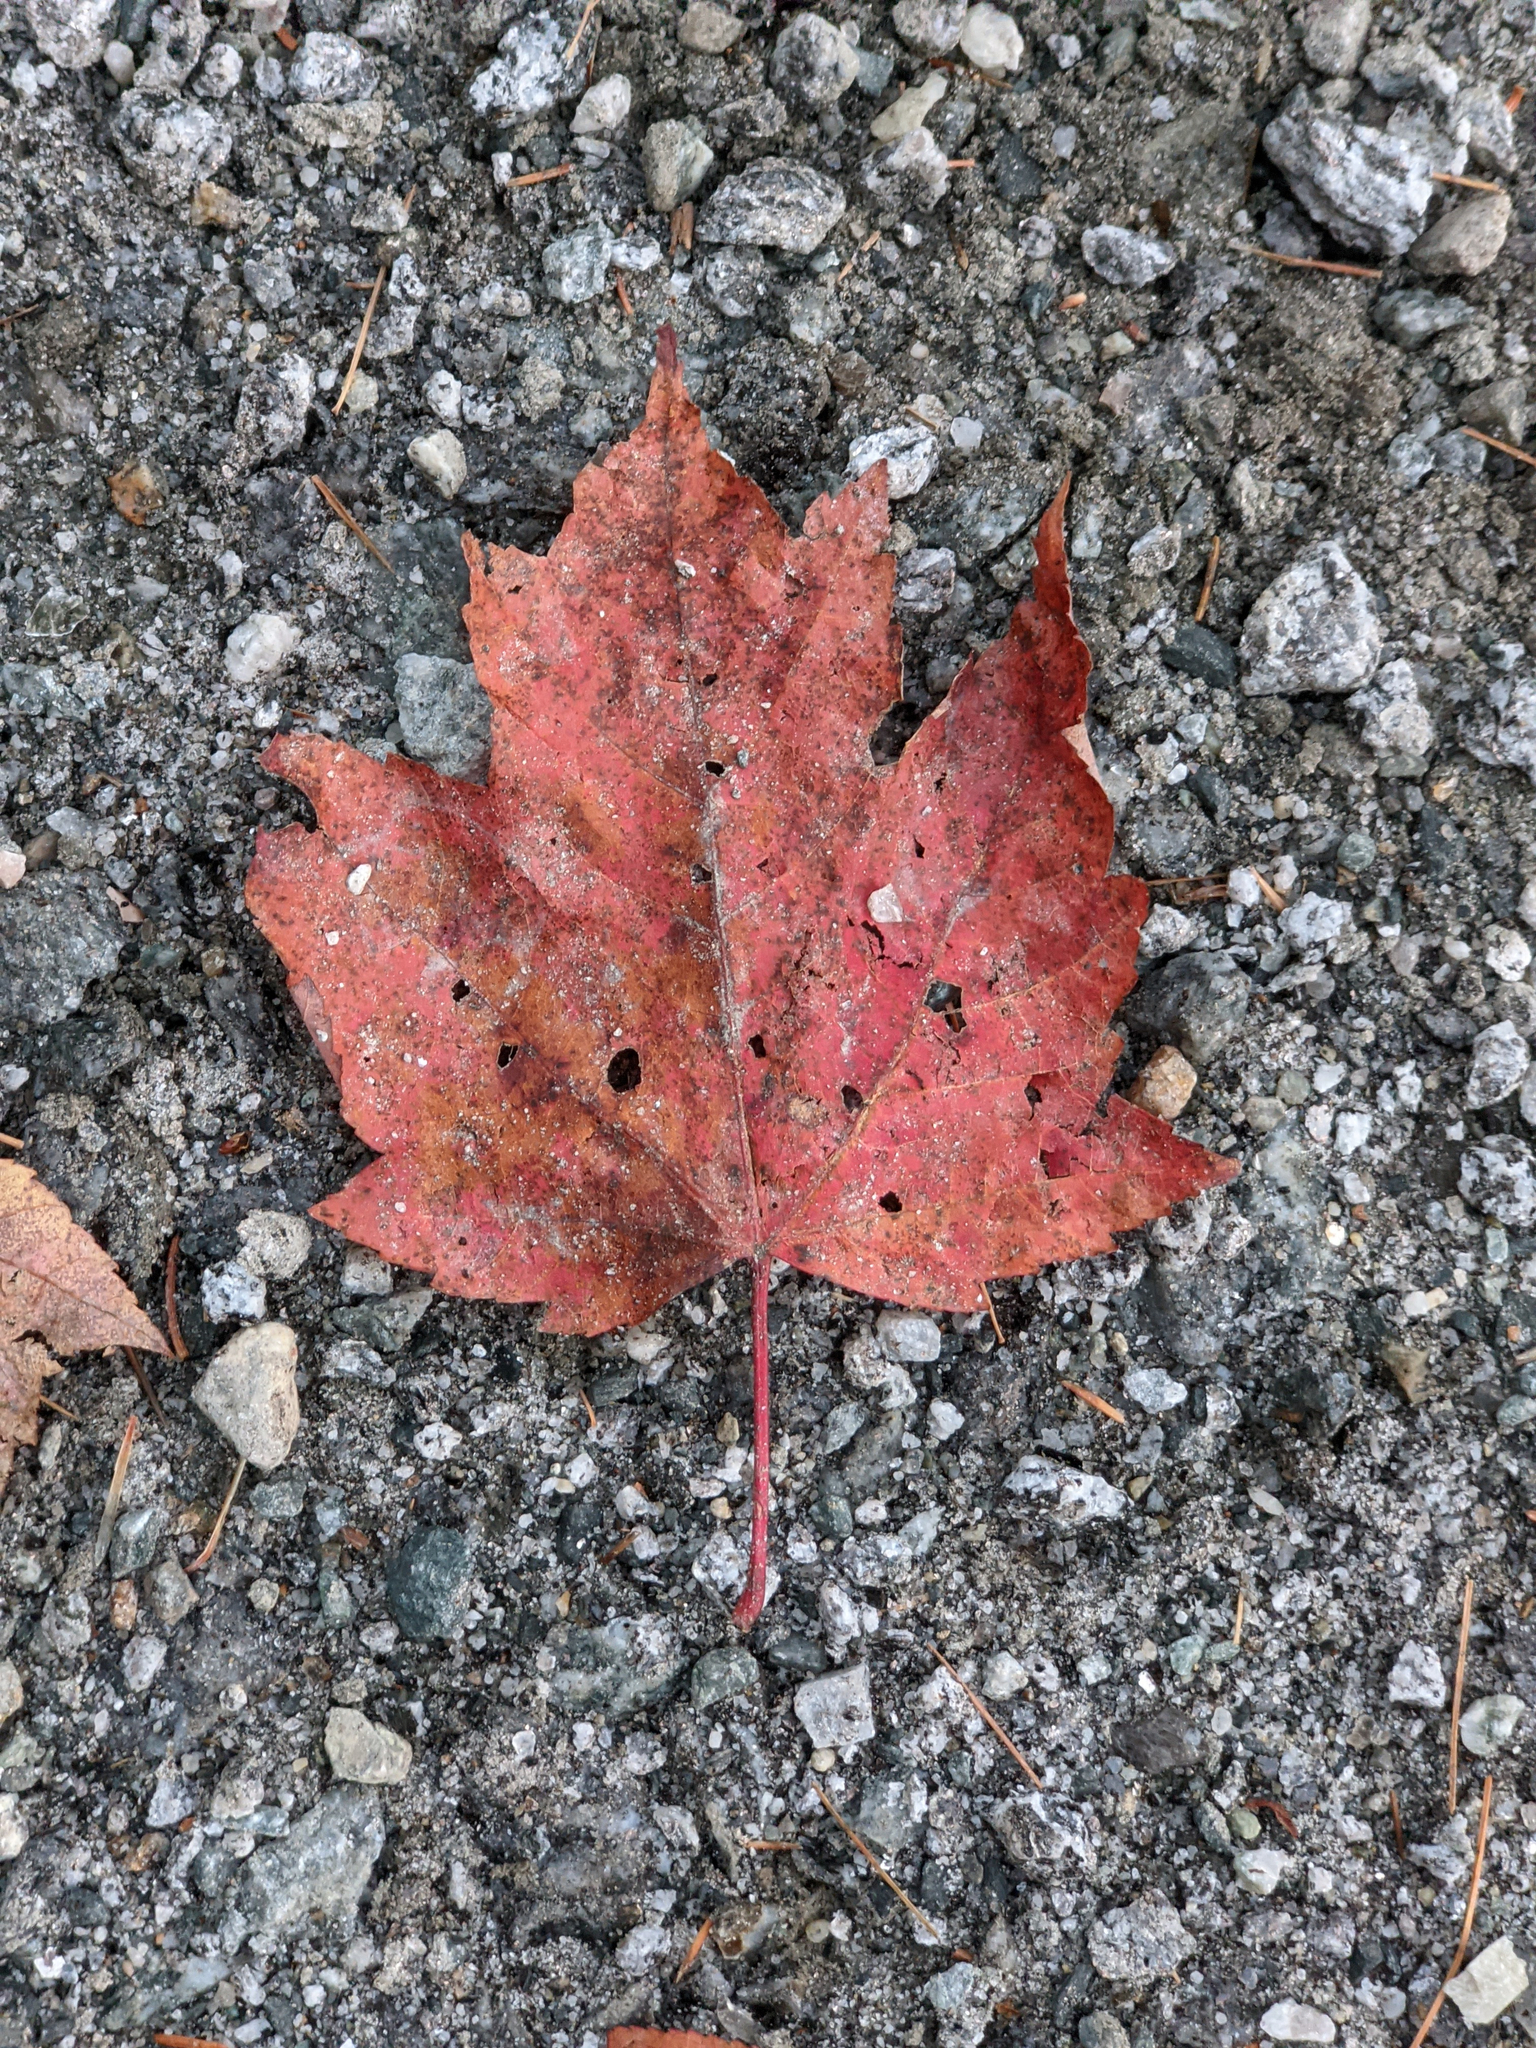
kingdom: Plantae
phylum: Tracheophyta
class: Magnoliopsida
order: Sapindales
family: Sapindaceae
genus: Acer
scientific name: Acer rubrum
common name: Red maple
